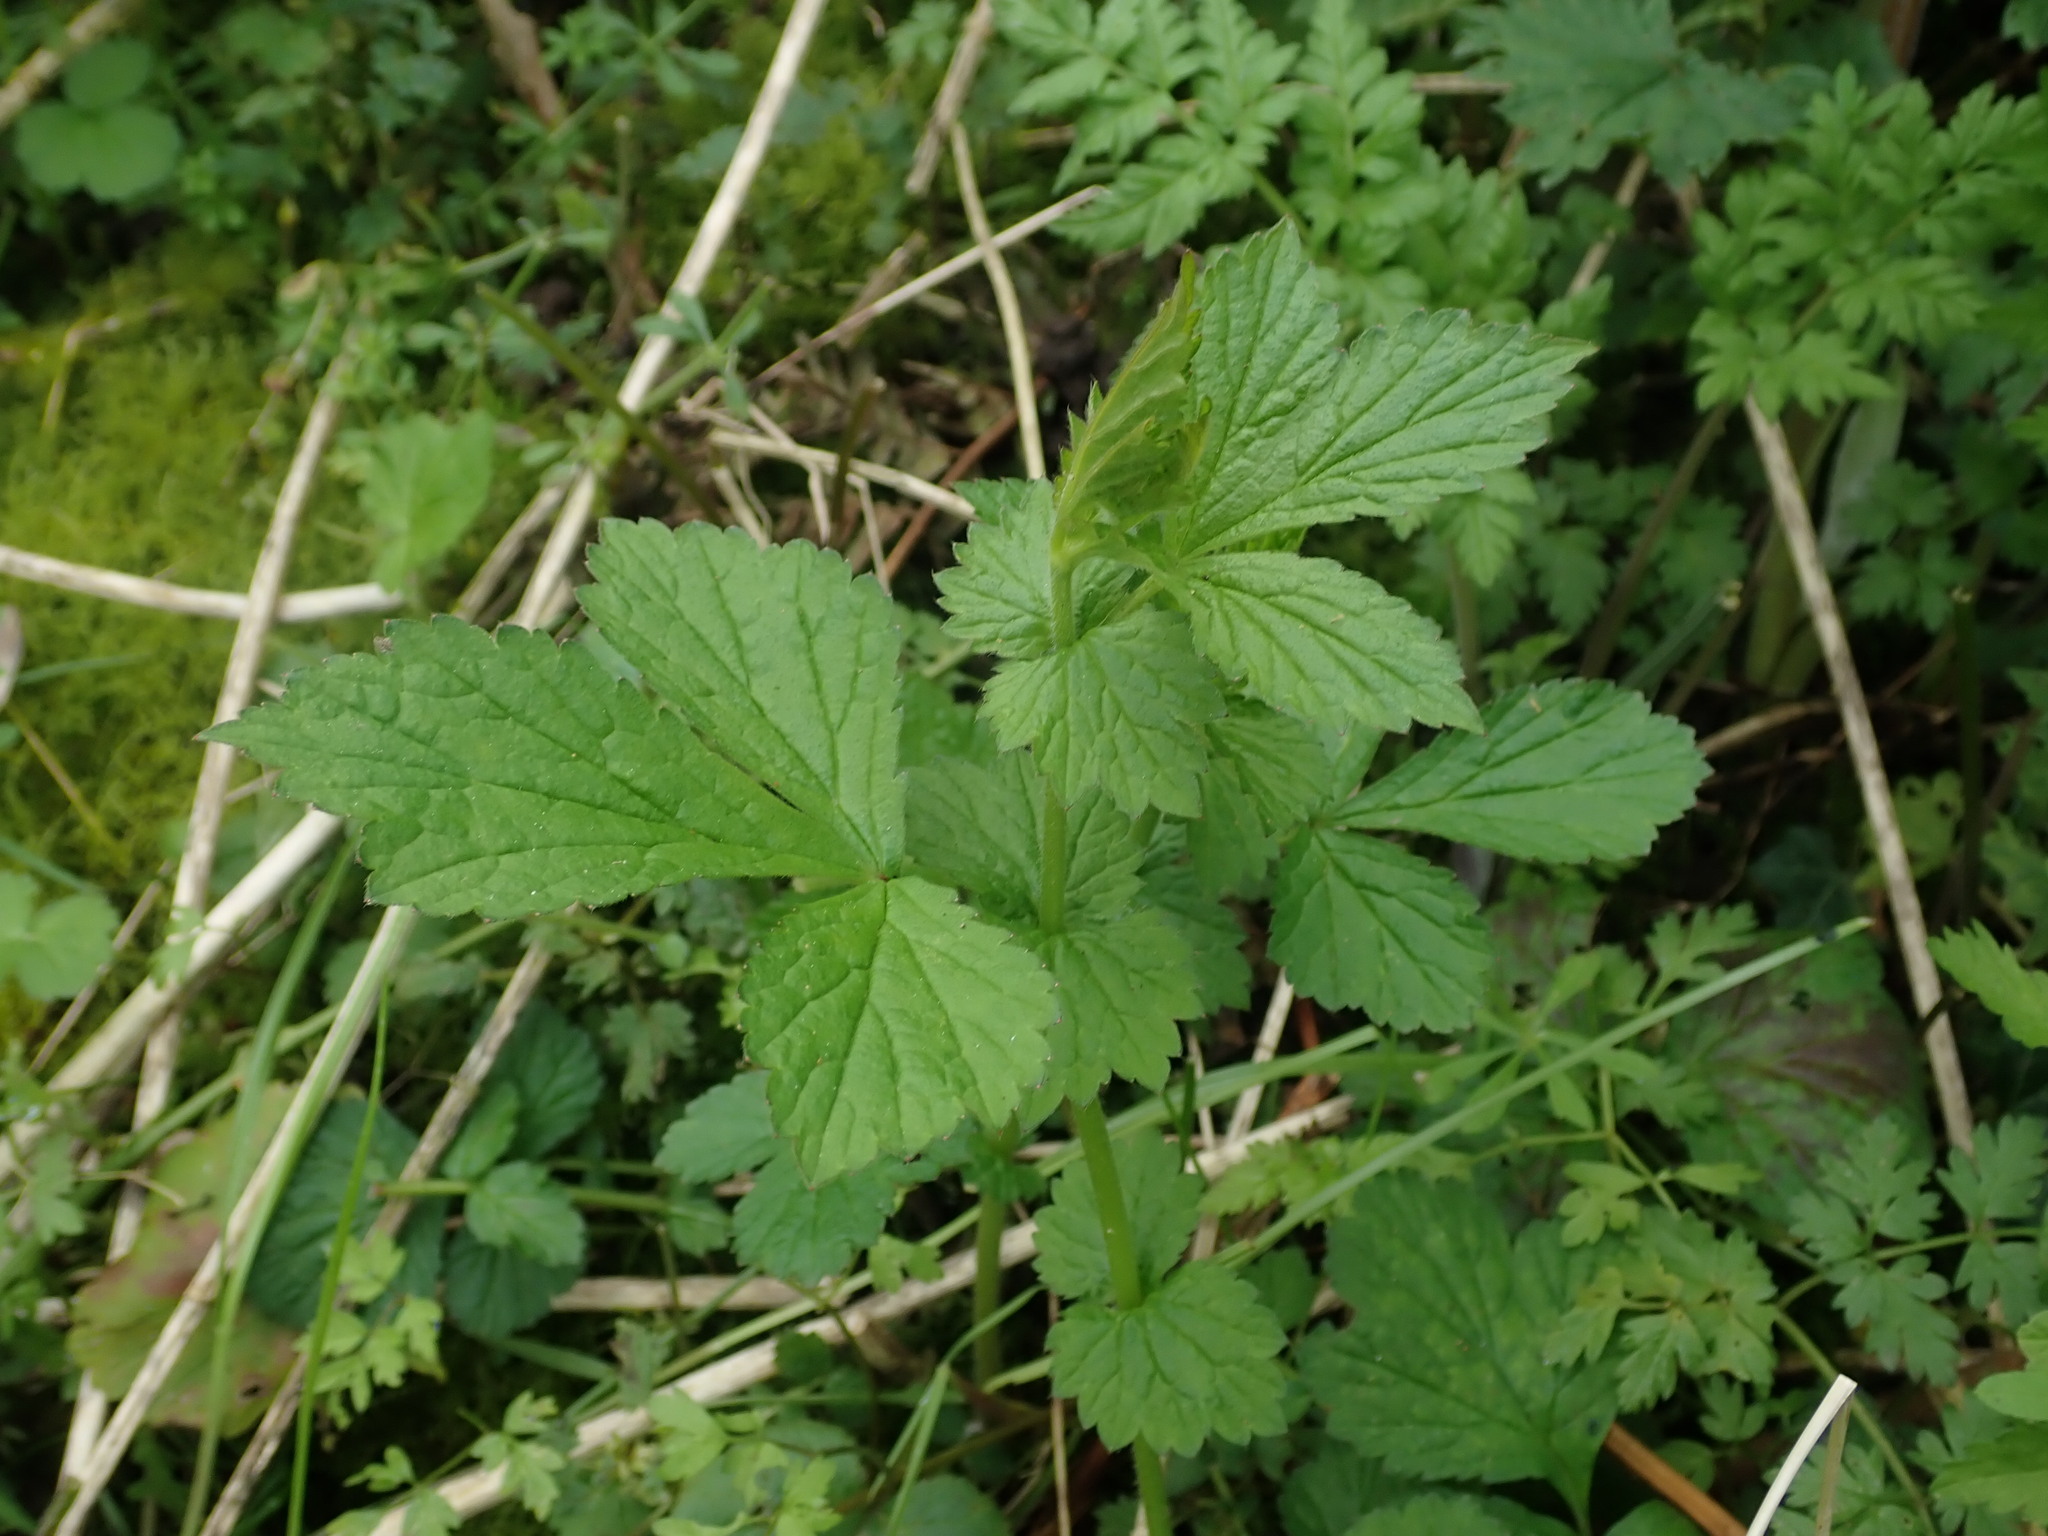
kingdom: Plantae
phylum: Tracheophyta
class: Magnoliopsida
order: Rosales
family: Rosaceae
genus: Geum
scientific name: Geum urbanum
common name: Wood avens
